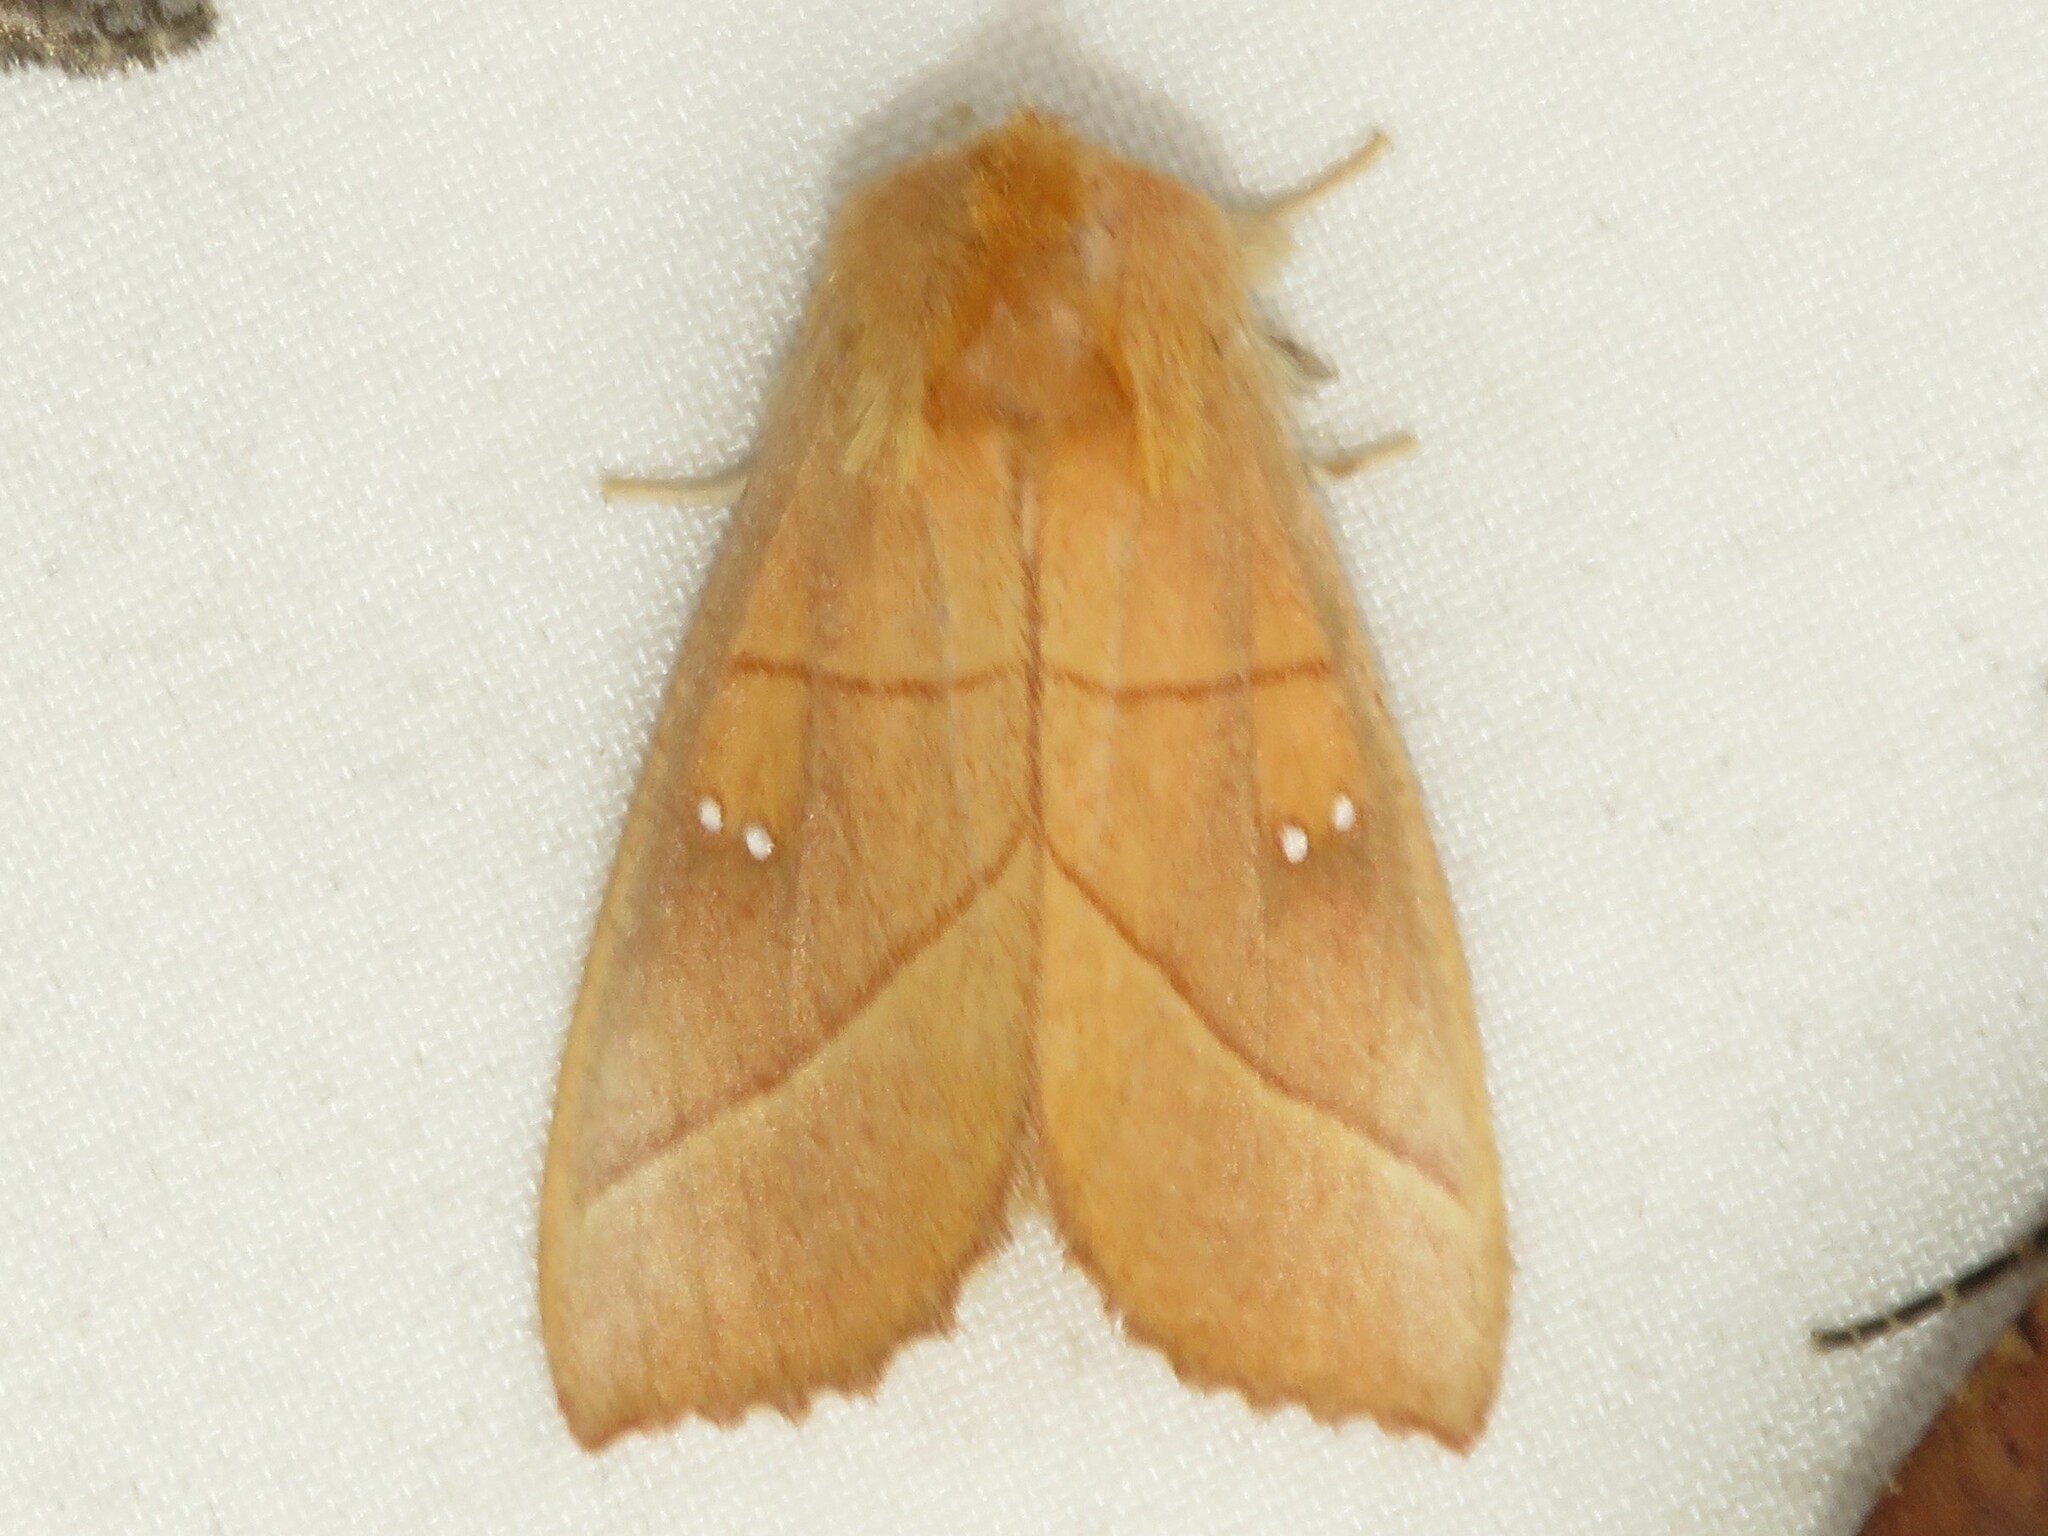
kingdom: Animalia
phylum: Arthropoda
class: Insecta
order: Lepidoptera
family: Notodontidae
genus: Nadata
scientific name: Nadata gibbosa
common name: White-dotted prominent
